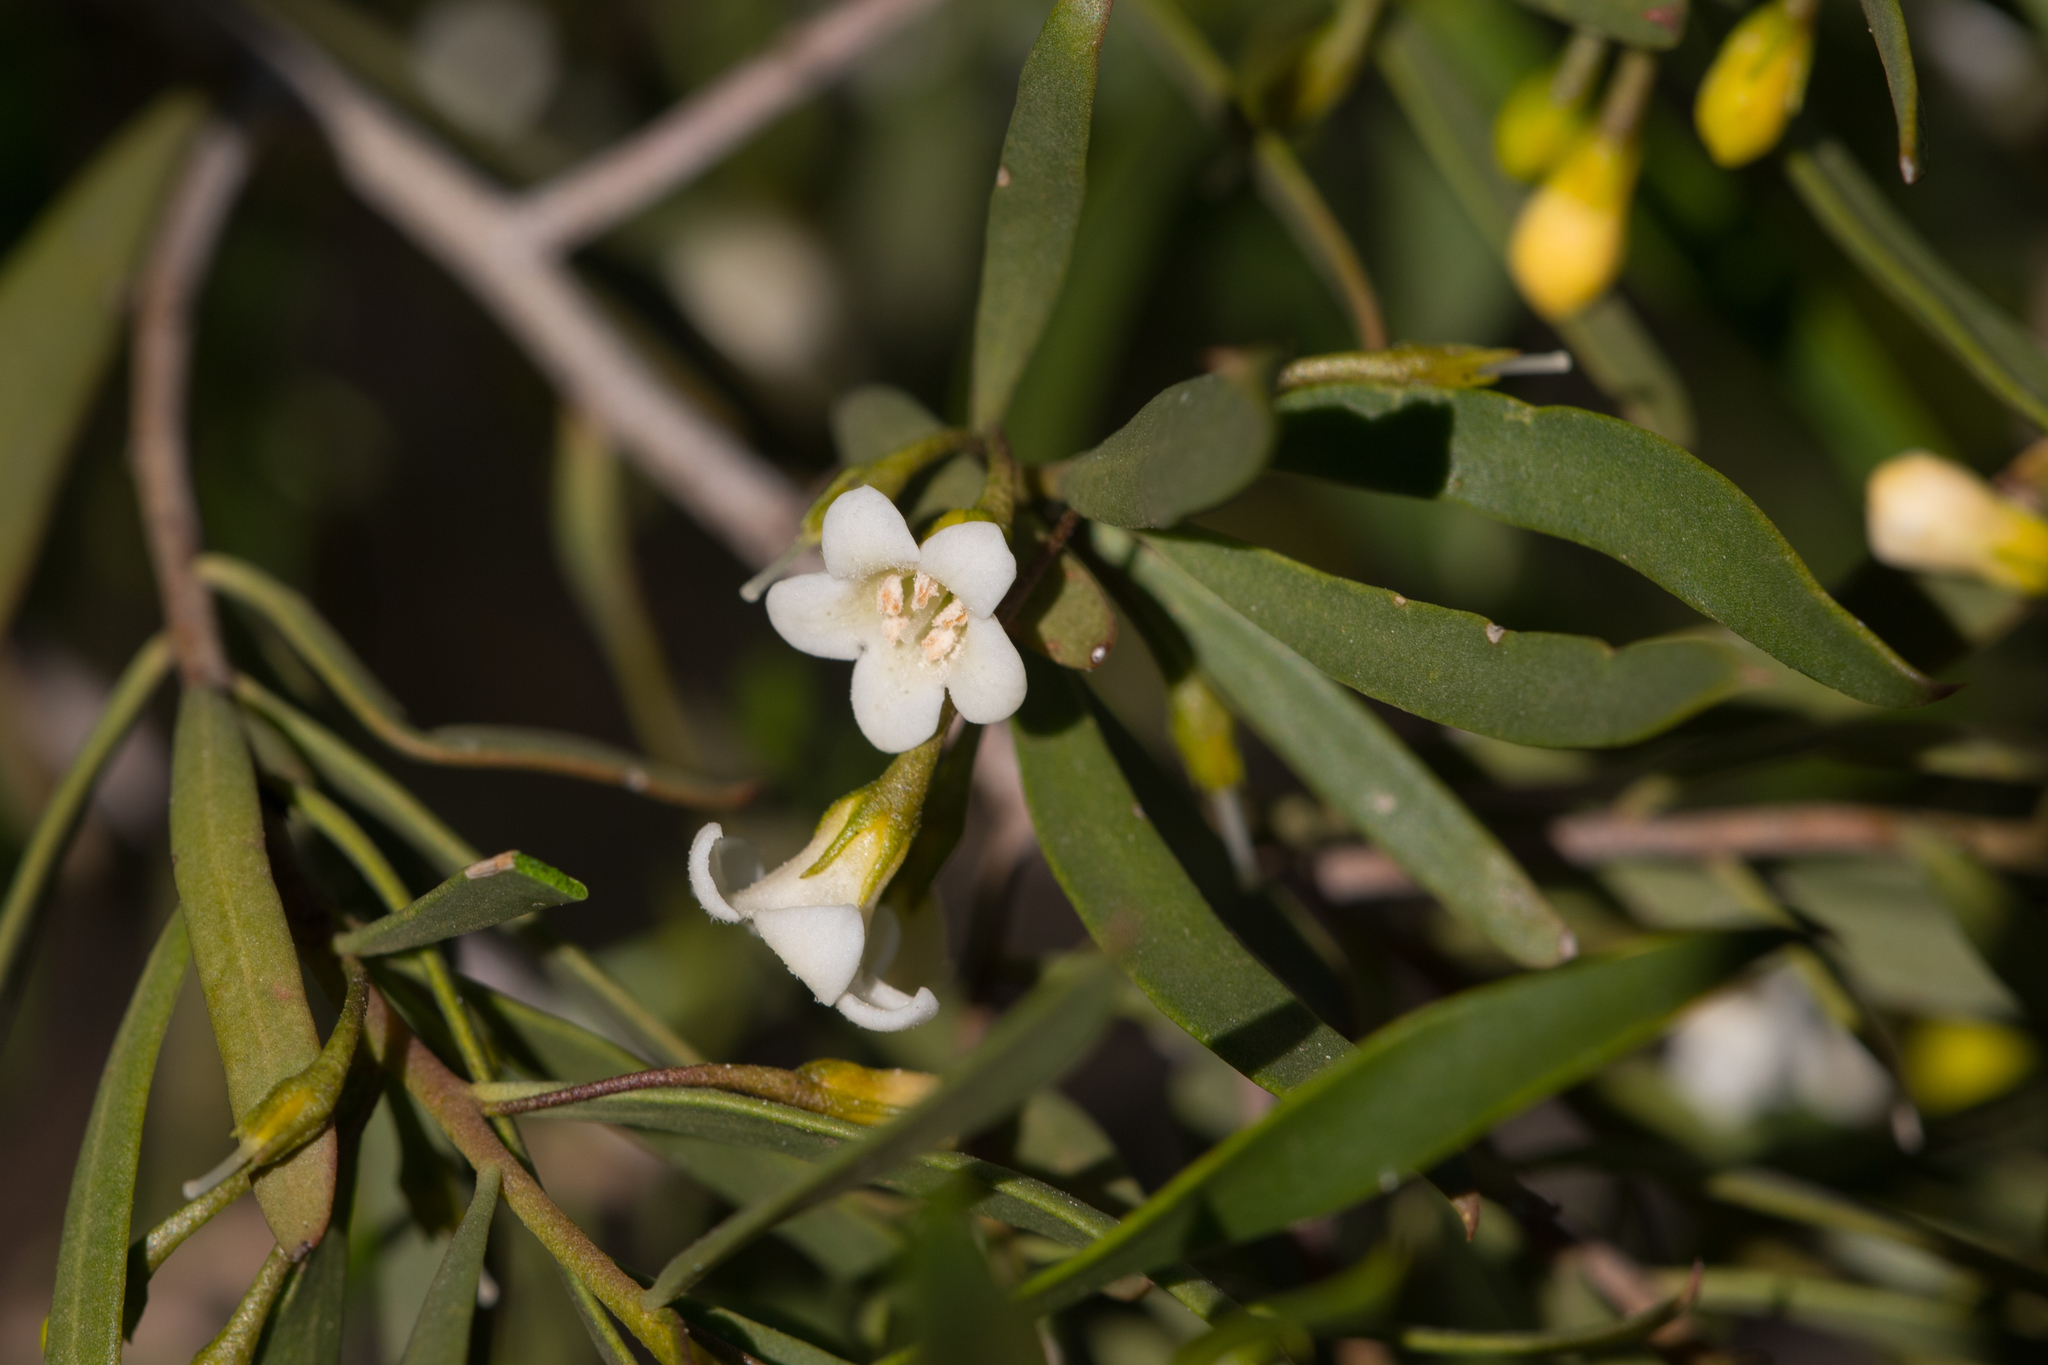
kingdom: Plantae
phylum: Tracheophyta
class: Magnoliopsida
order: Lamiales
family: Scrophulariaceae
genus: Eremophila
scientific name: Eremophila deserti
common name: Ellangowan-poisonbush
